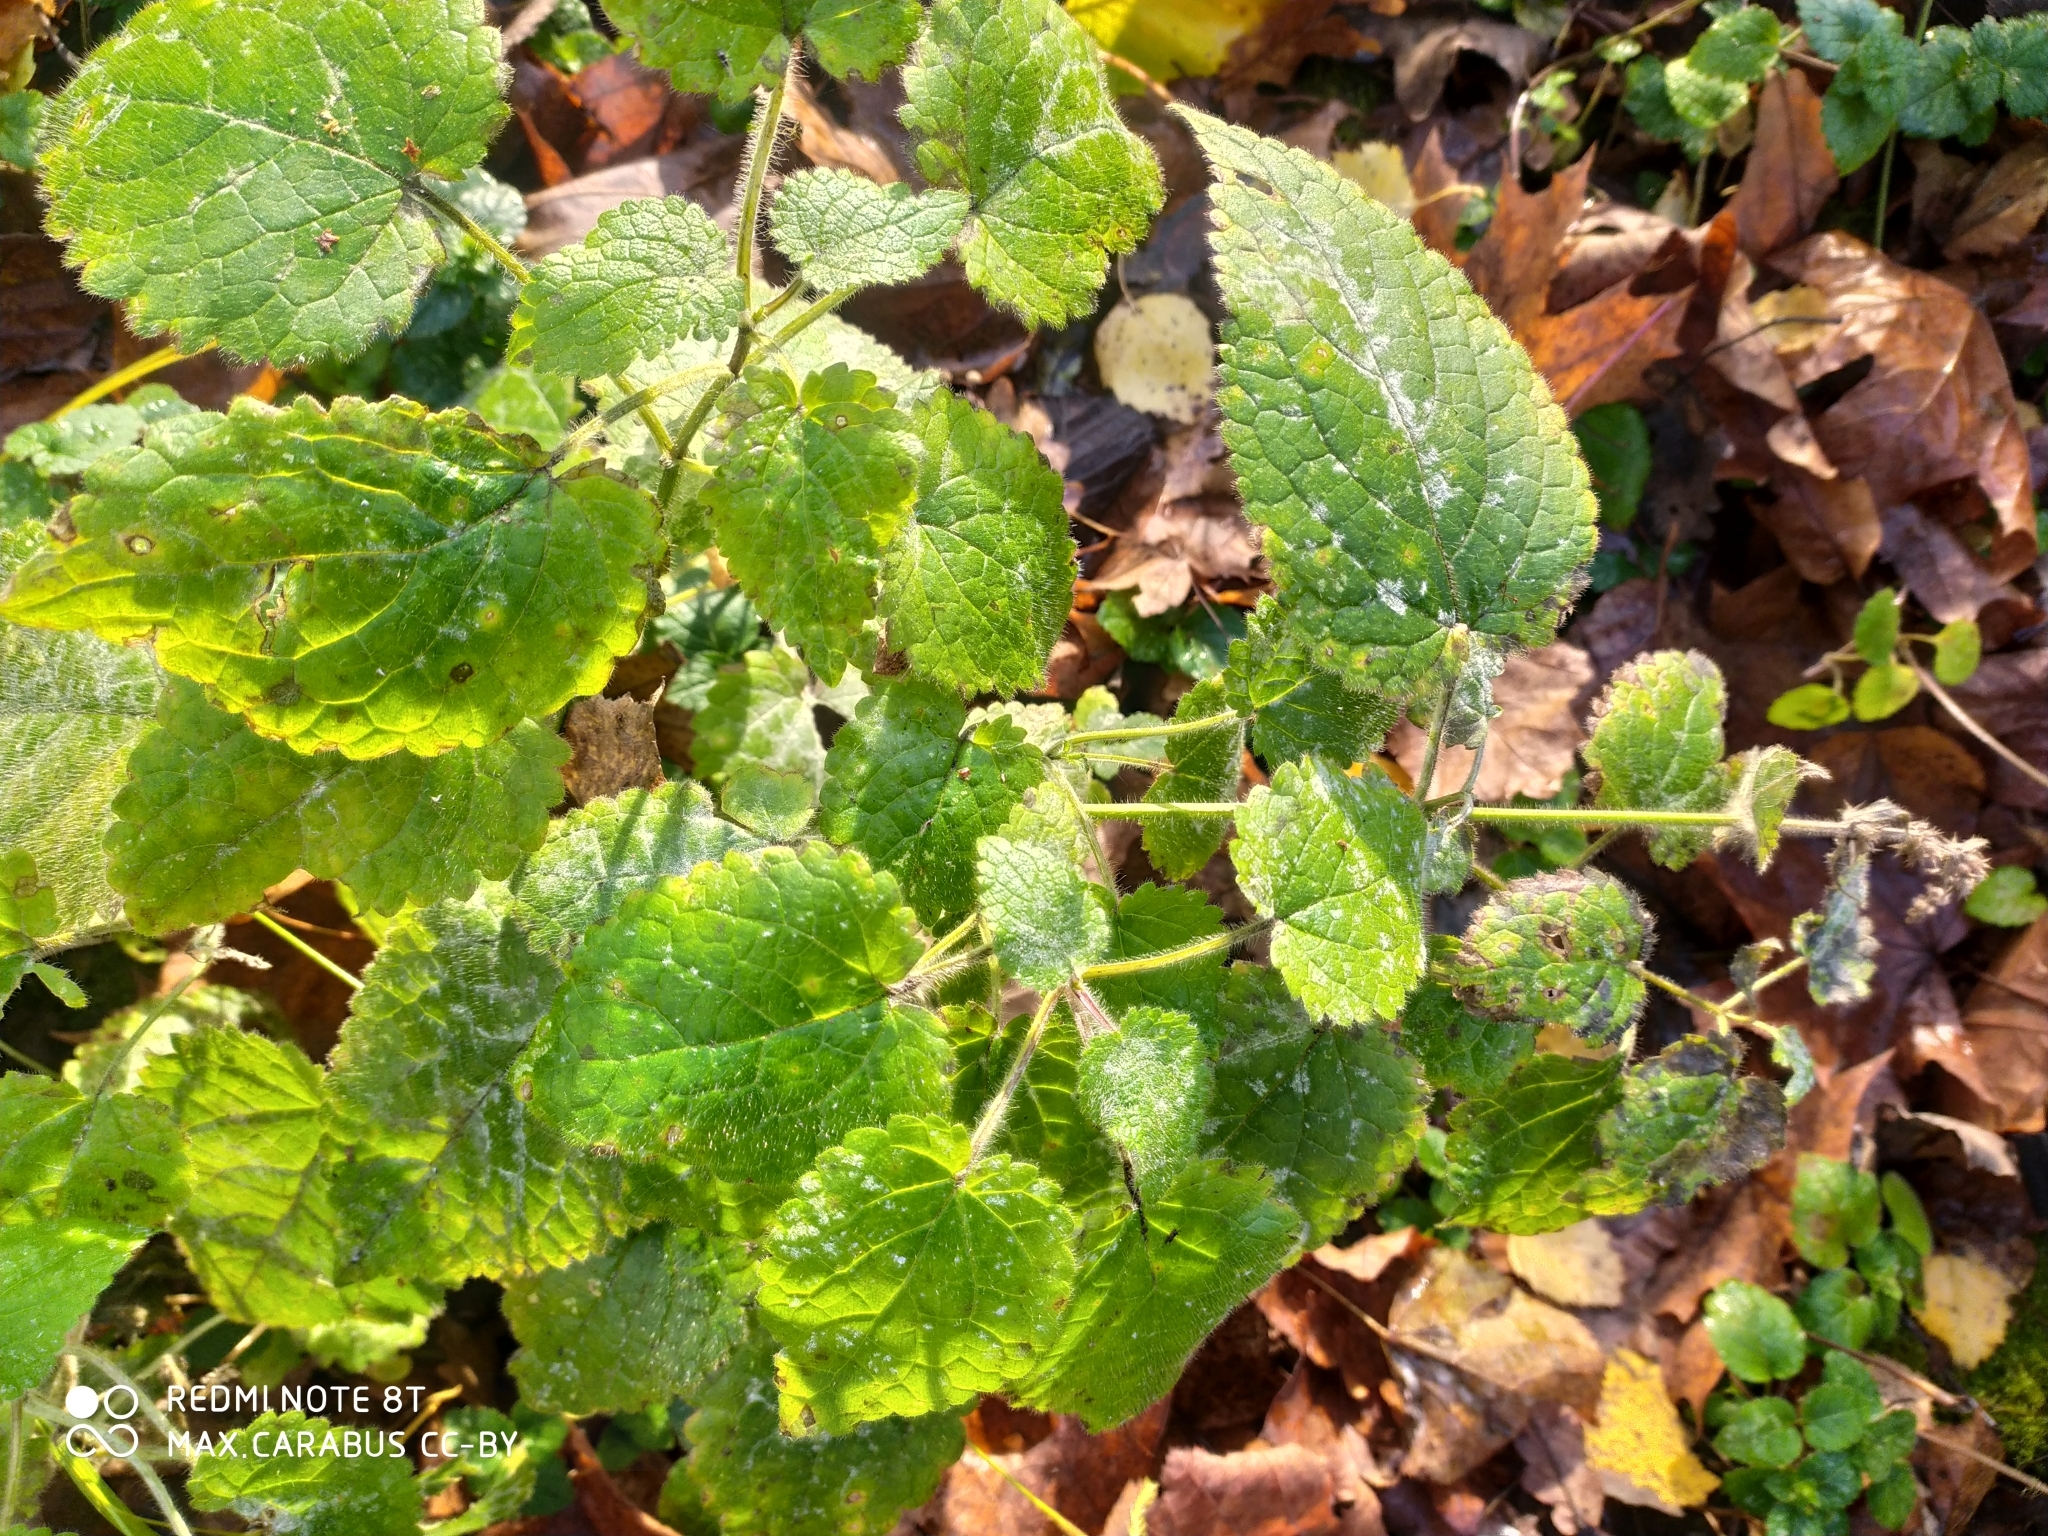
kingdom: Plantae
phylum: Tracheophyta
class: Magnoliopsida
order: Lamiales
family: Lamiaceae
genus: Stachys
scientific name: Stachys sylvatica
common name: Hedge woundwort
